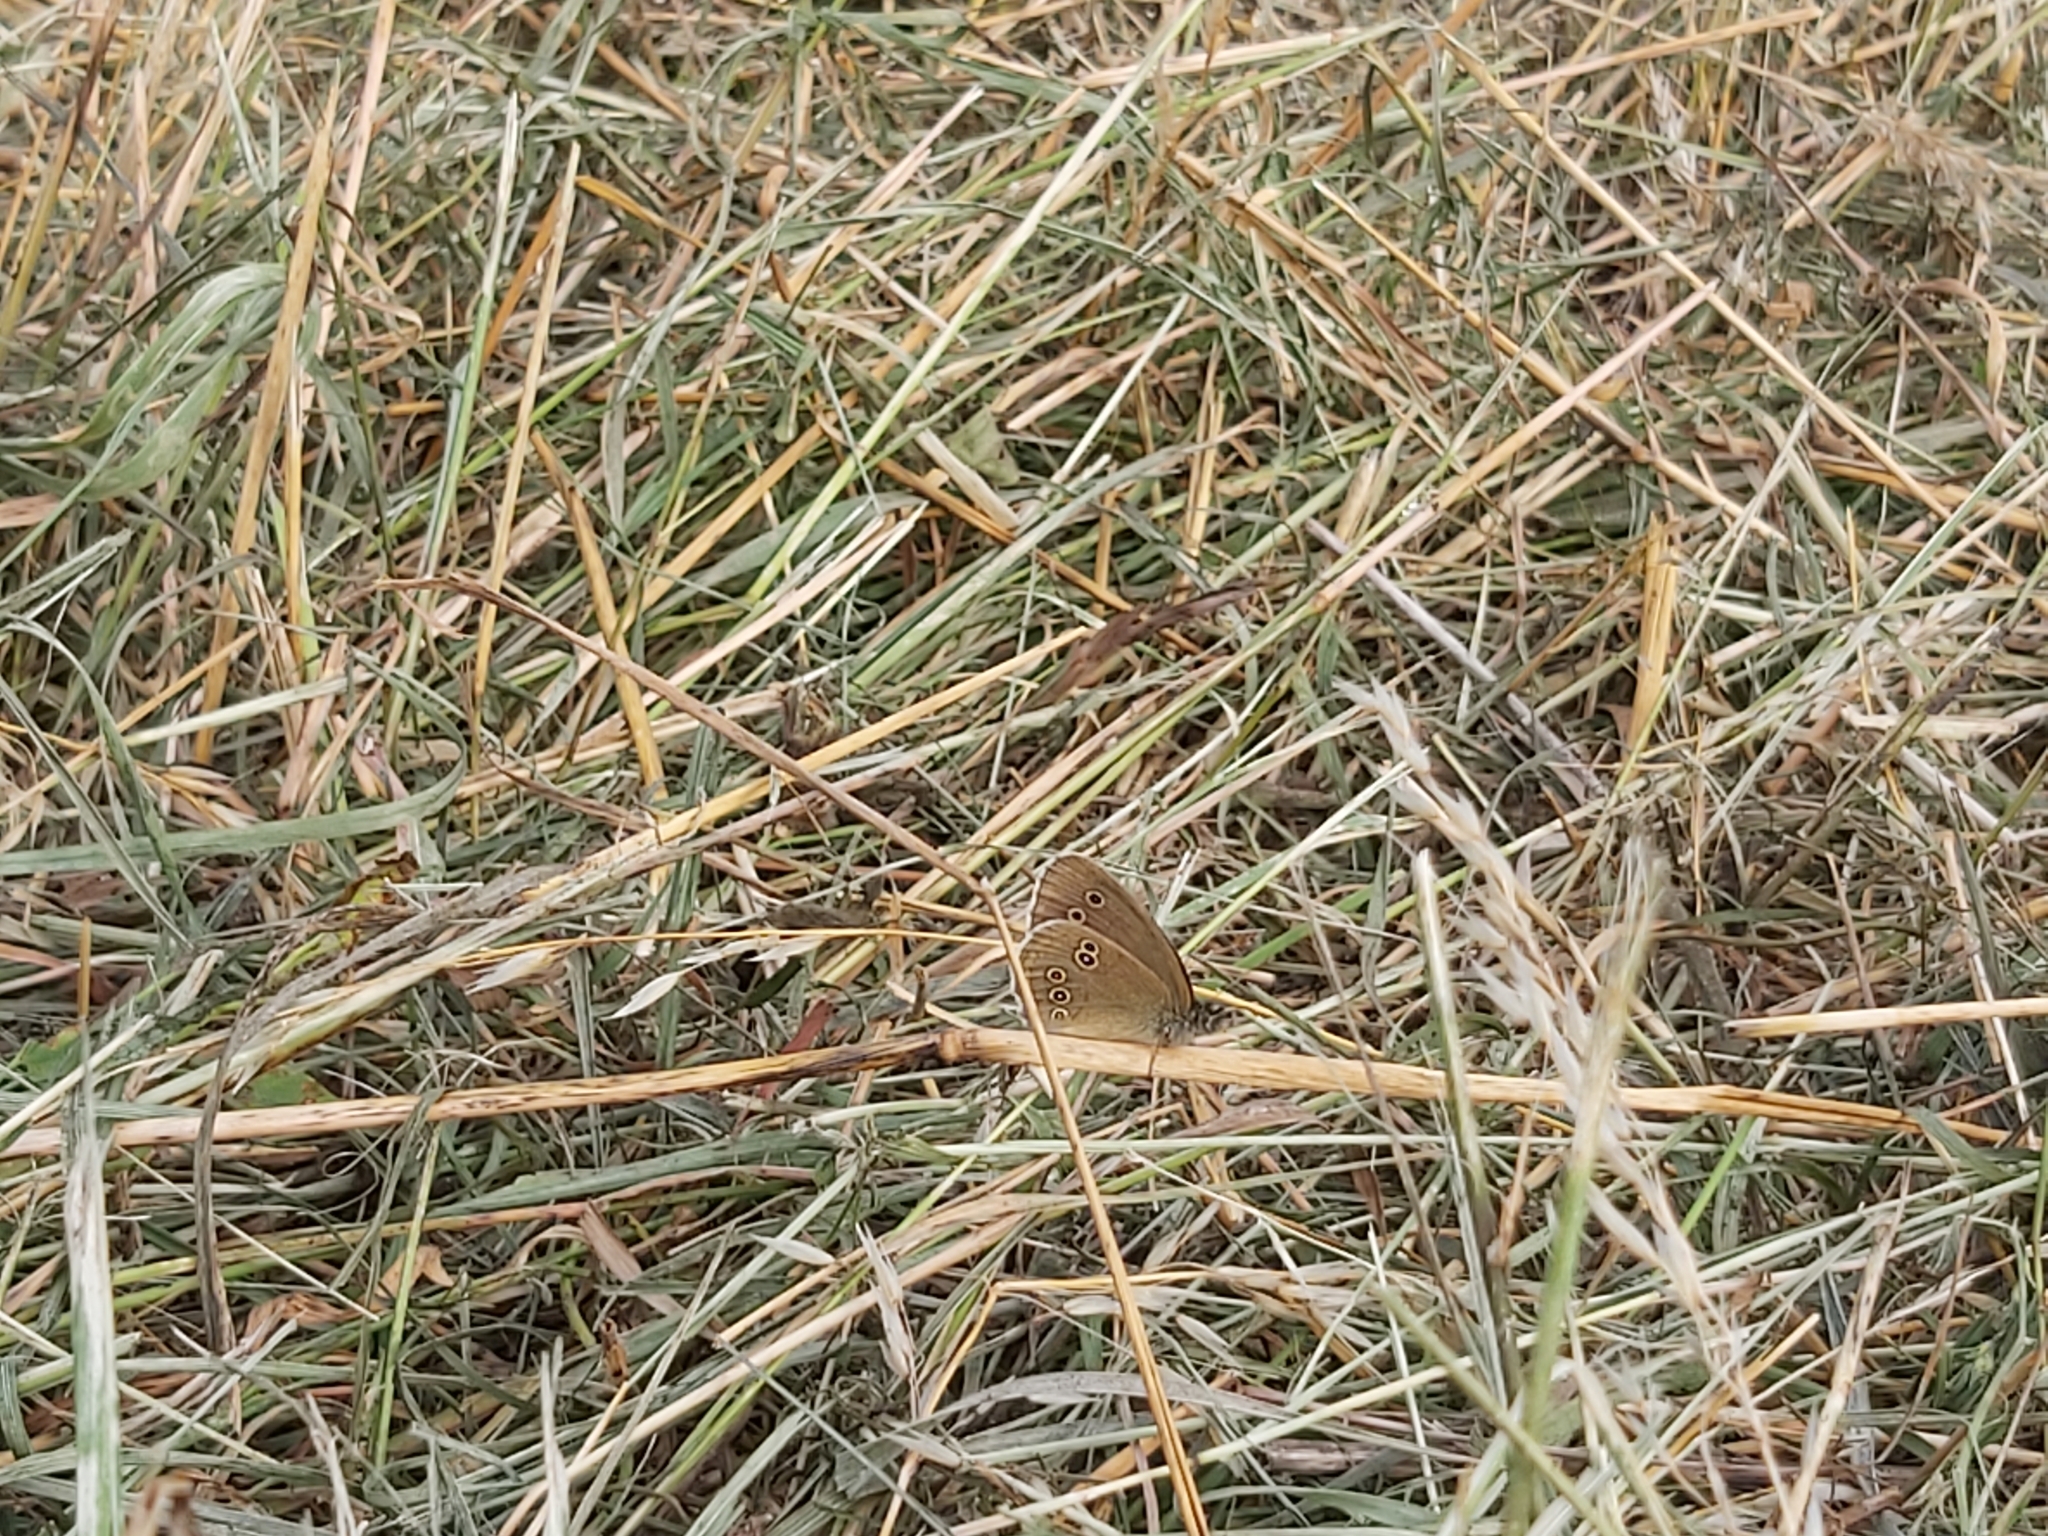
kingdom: Animalia
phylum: Arthropoda
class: Insecta
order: Lepidoptera
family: Nymphalidae
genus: Aphantopus
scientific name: Aphantopus hyperantus
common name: Ringlet
